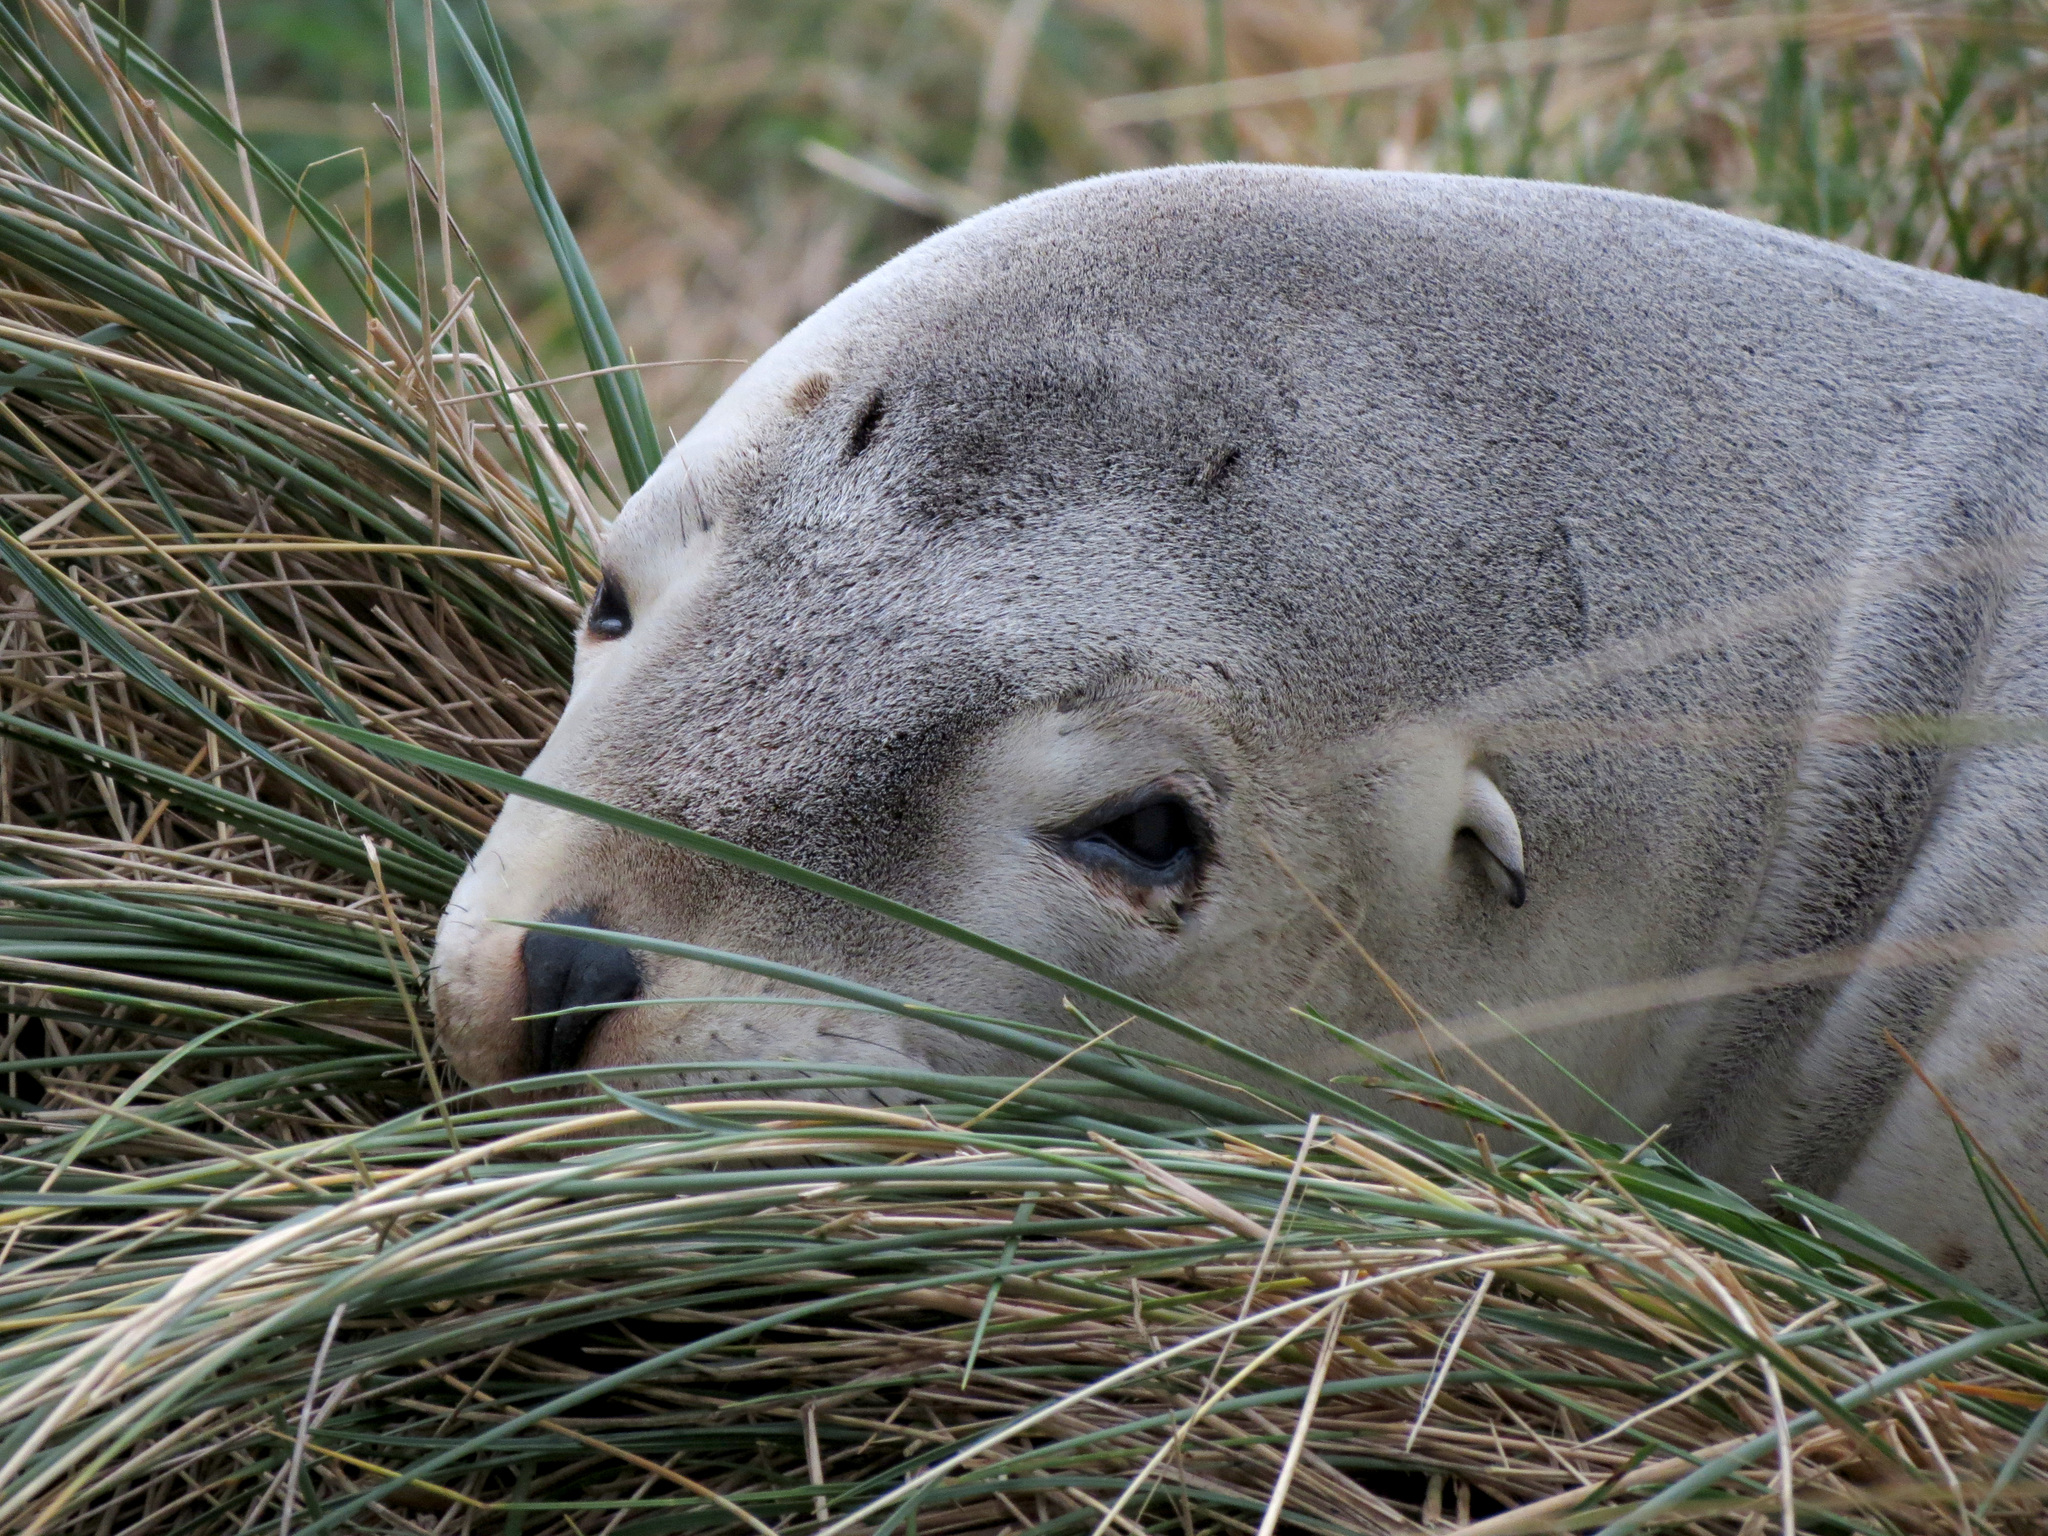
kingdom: Animalia
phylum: Chordata
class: Mammalia
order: Carnivora
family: Otariidae
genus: Phocarctos
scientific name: Phocarctos hookeri
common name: New zealand sea lion
